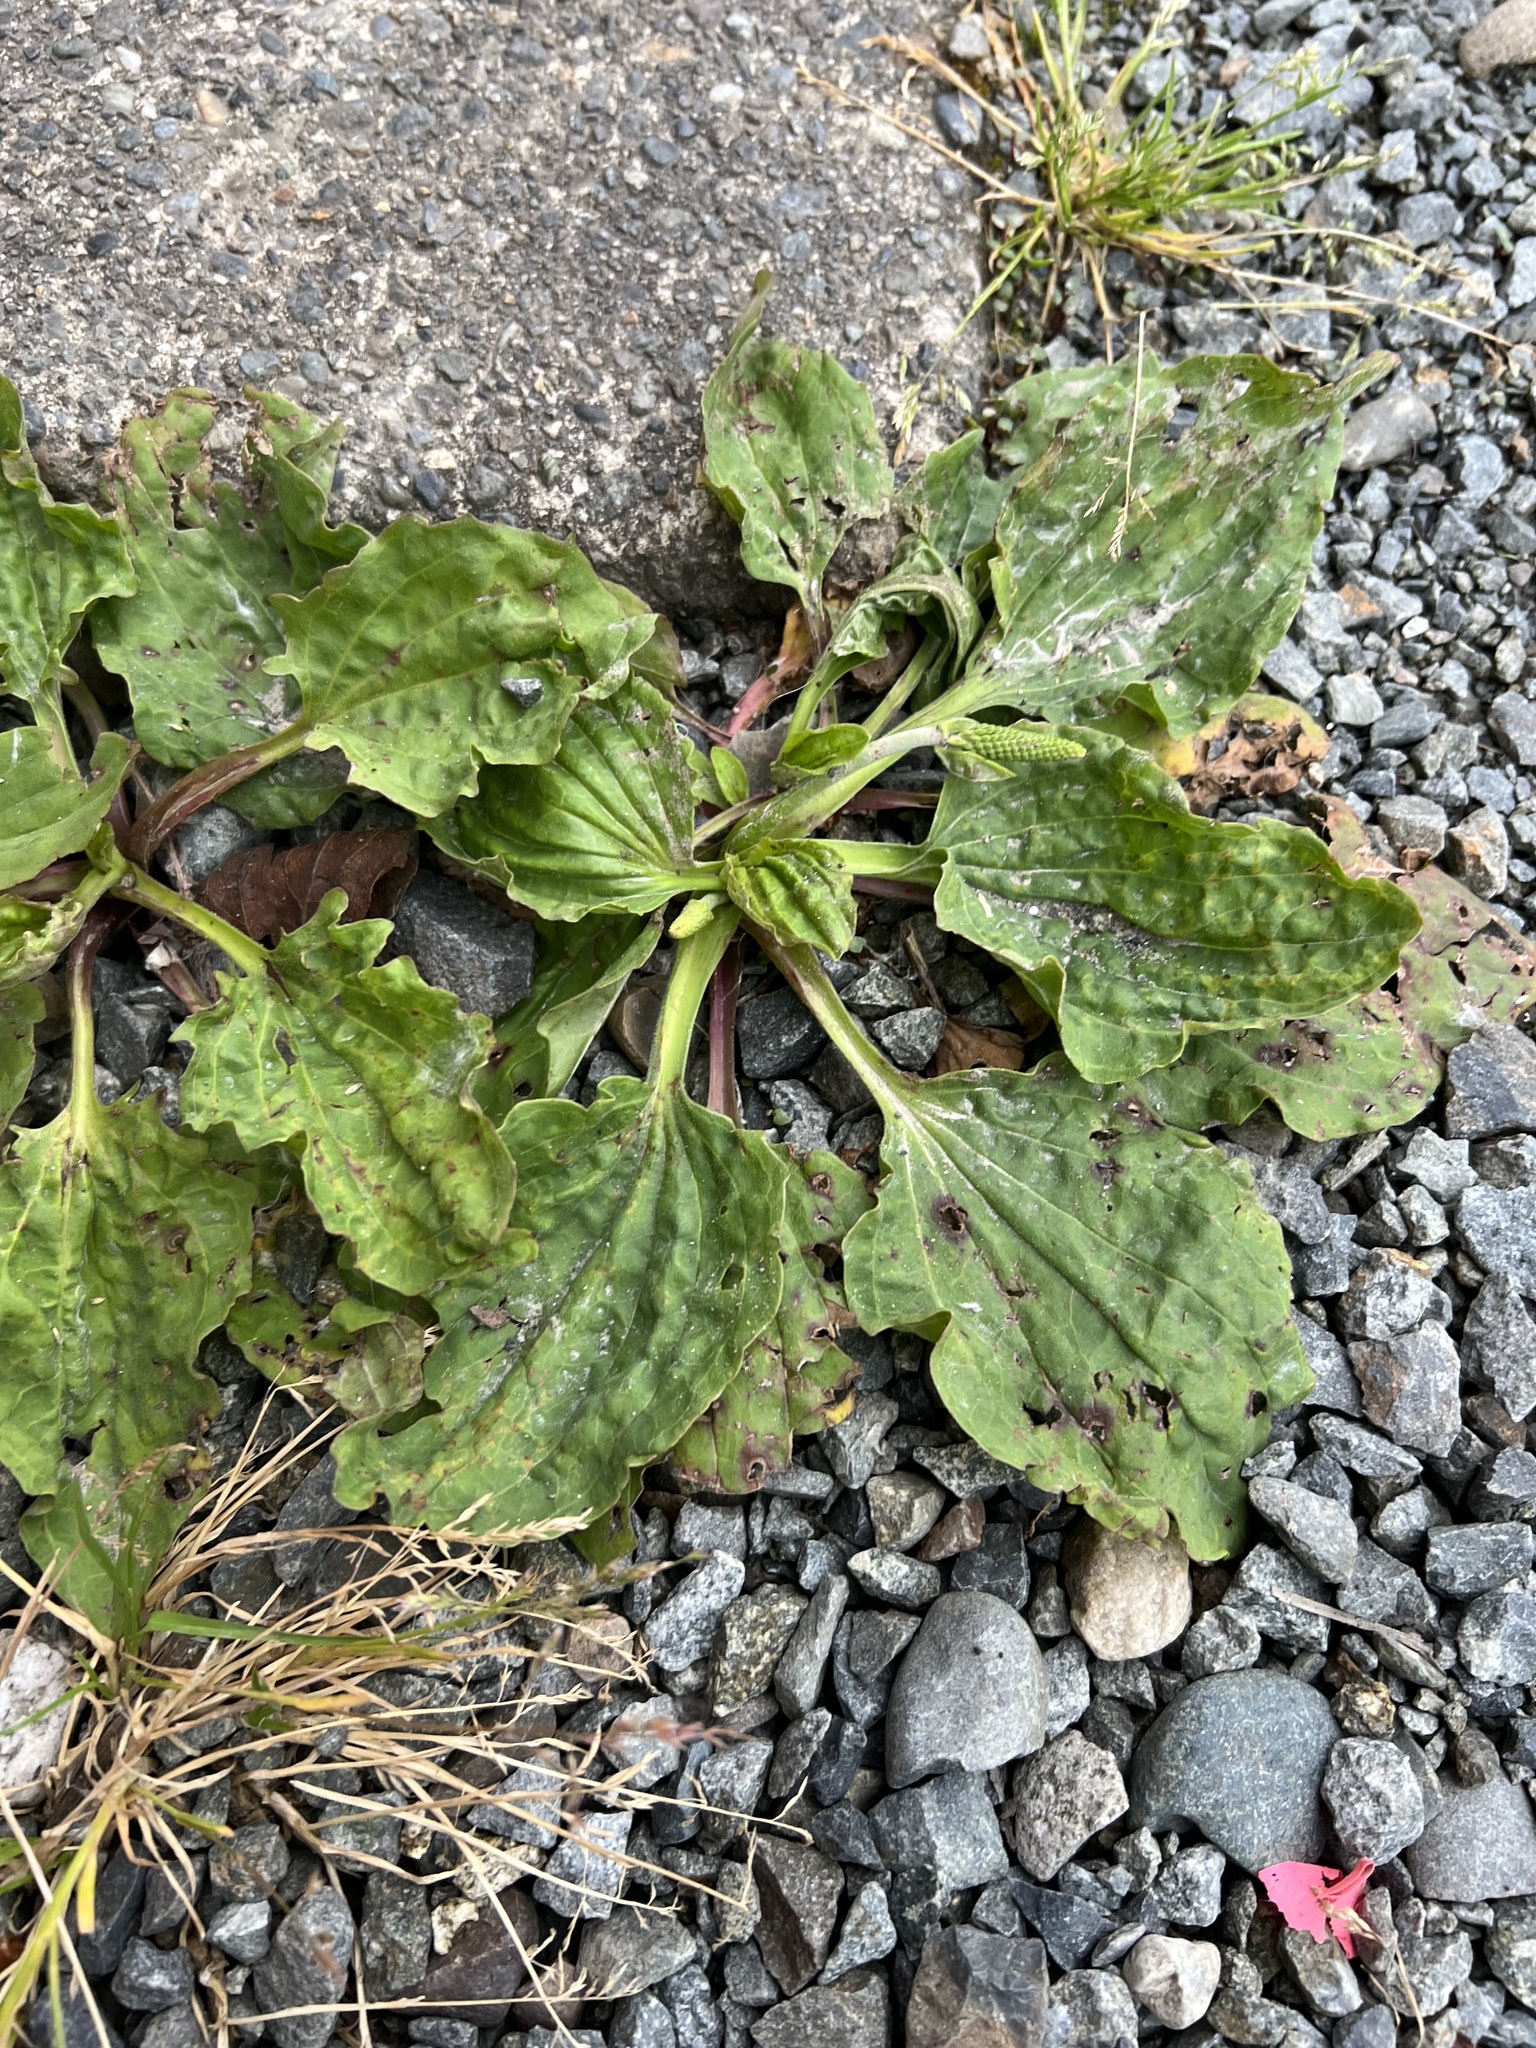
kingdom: Plantae
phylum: Tracheophyta
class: Magnoliopsida
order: Lamiales
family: Plantaginaceae
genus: Plantago
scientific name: Plantago major
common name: Common plantain
